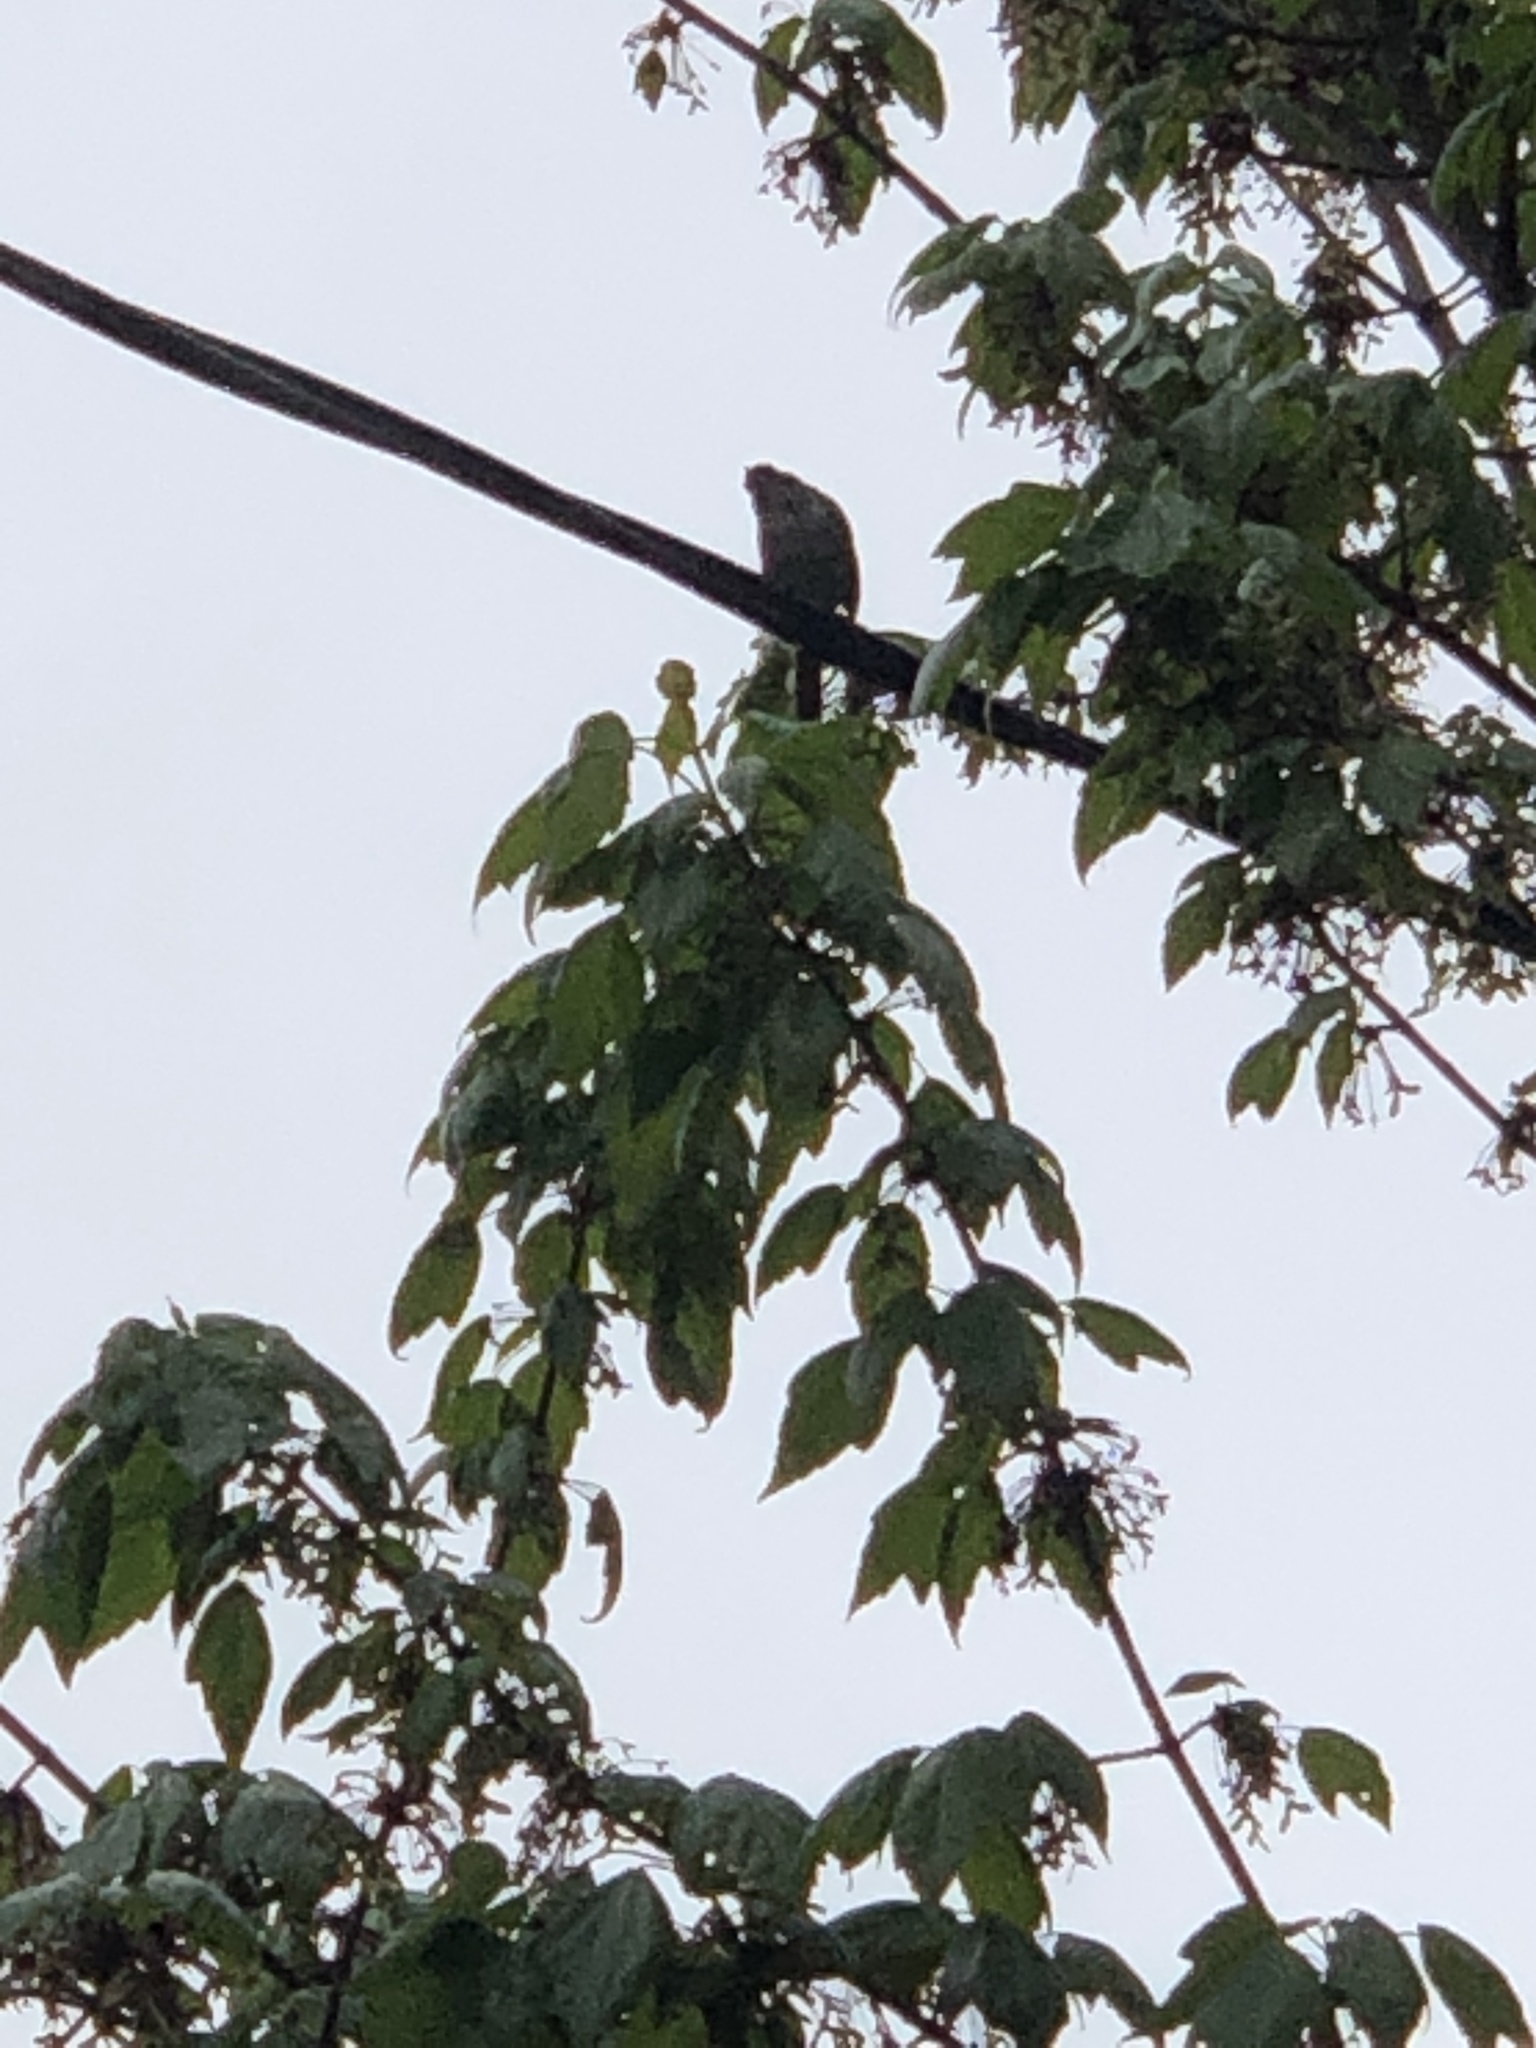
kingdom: Animalia
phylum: Chordata
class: Aves
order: Passeriformes
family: Passerellidae
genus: Melospiza
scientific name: Melospiza melodia
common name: Song sparrow
